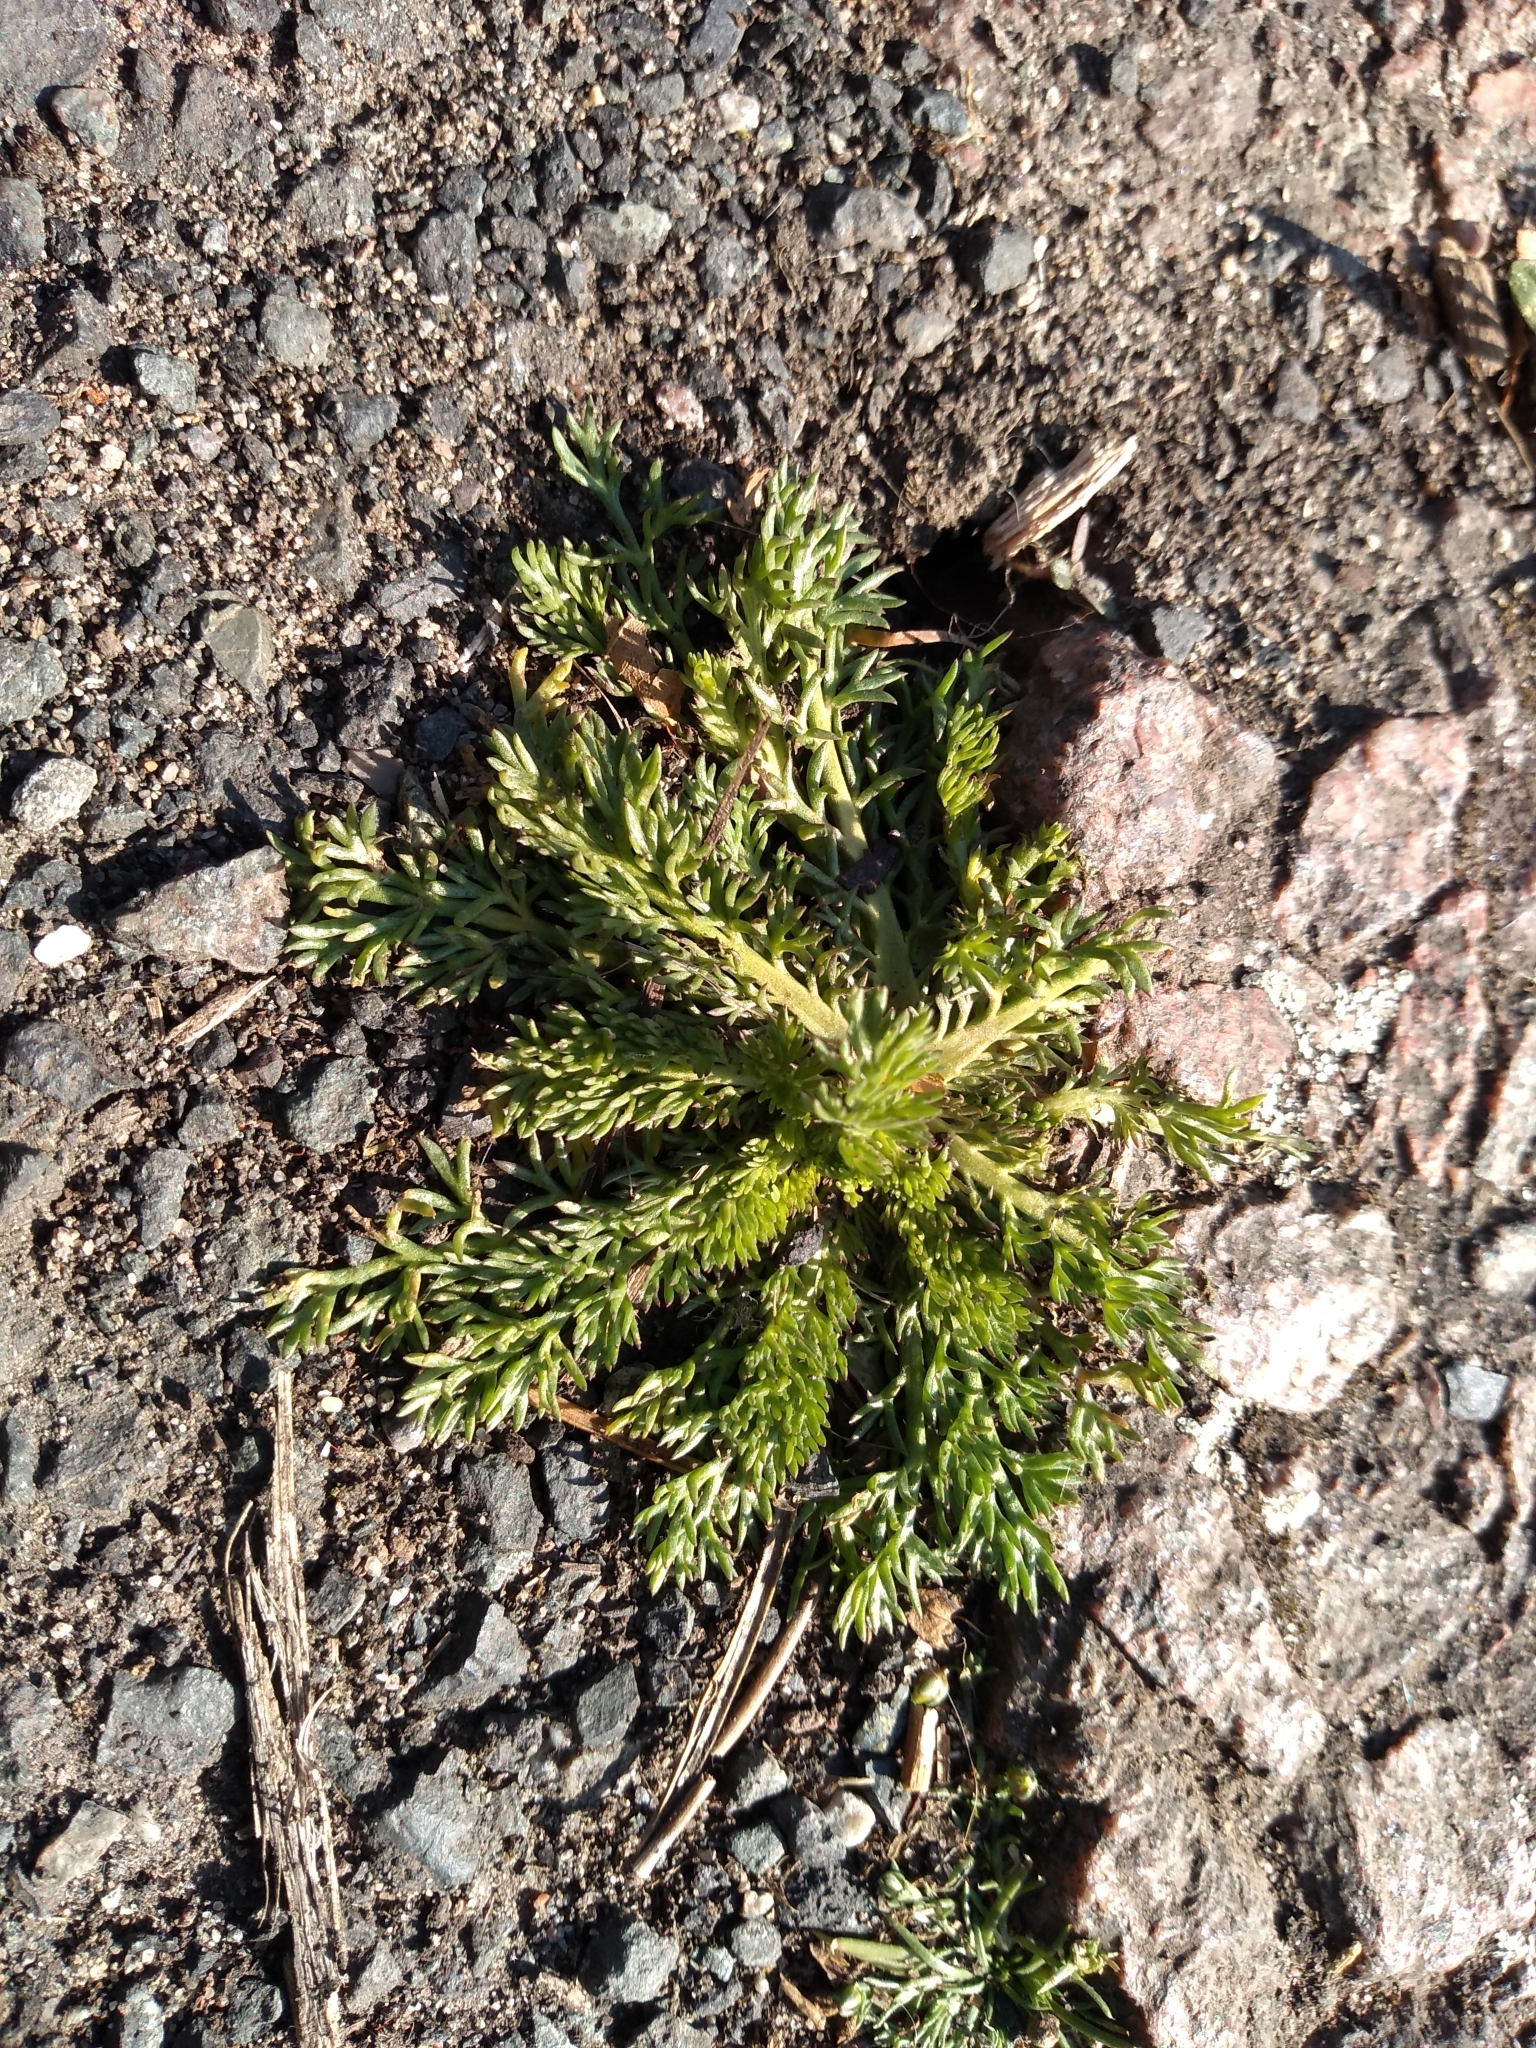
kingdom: Plantae
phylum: Tracheophyta
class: Magnoliopsida
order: Asterales
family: Asteraceae
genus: Matricaria
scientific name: Matricaria discoidea
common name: Disc mayweed
